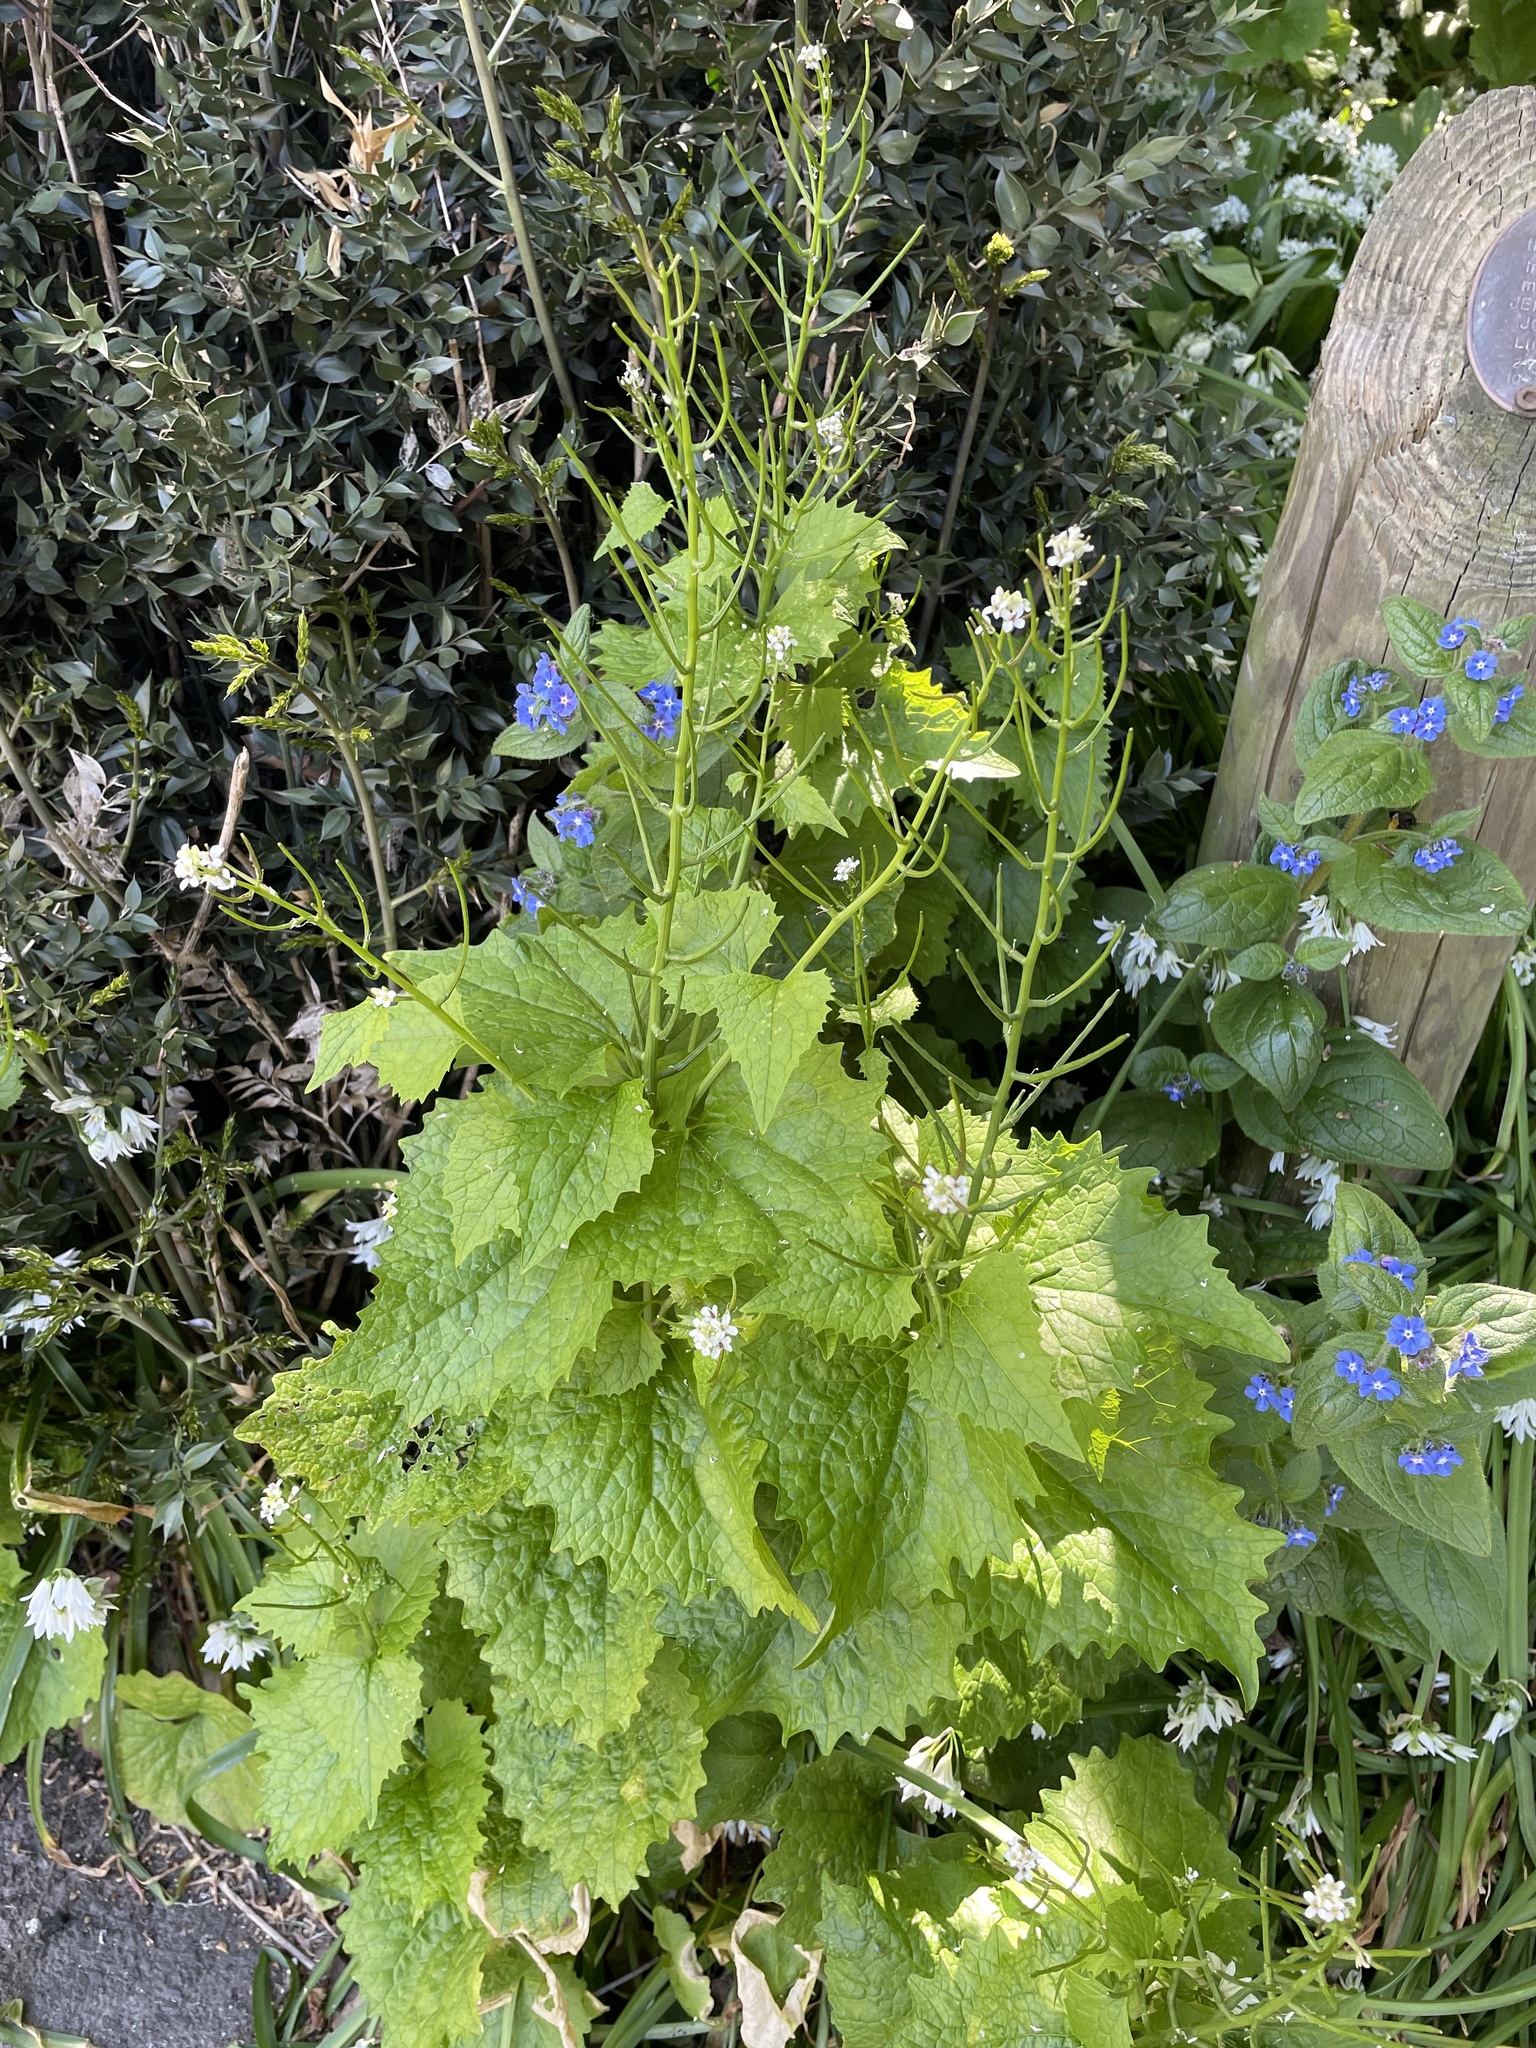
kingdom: Plantae
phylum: Tracheophyta
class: Magnoliopsida
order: Brassicales
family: Brassicaceae
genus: Alliaria
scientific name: Alliaria petiolata
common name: Garlic mustard
